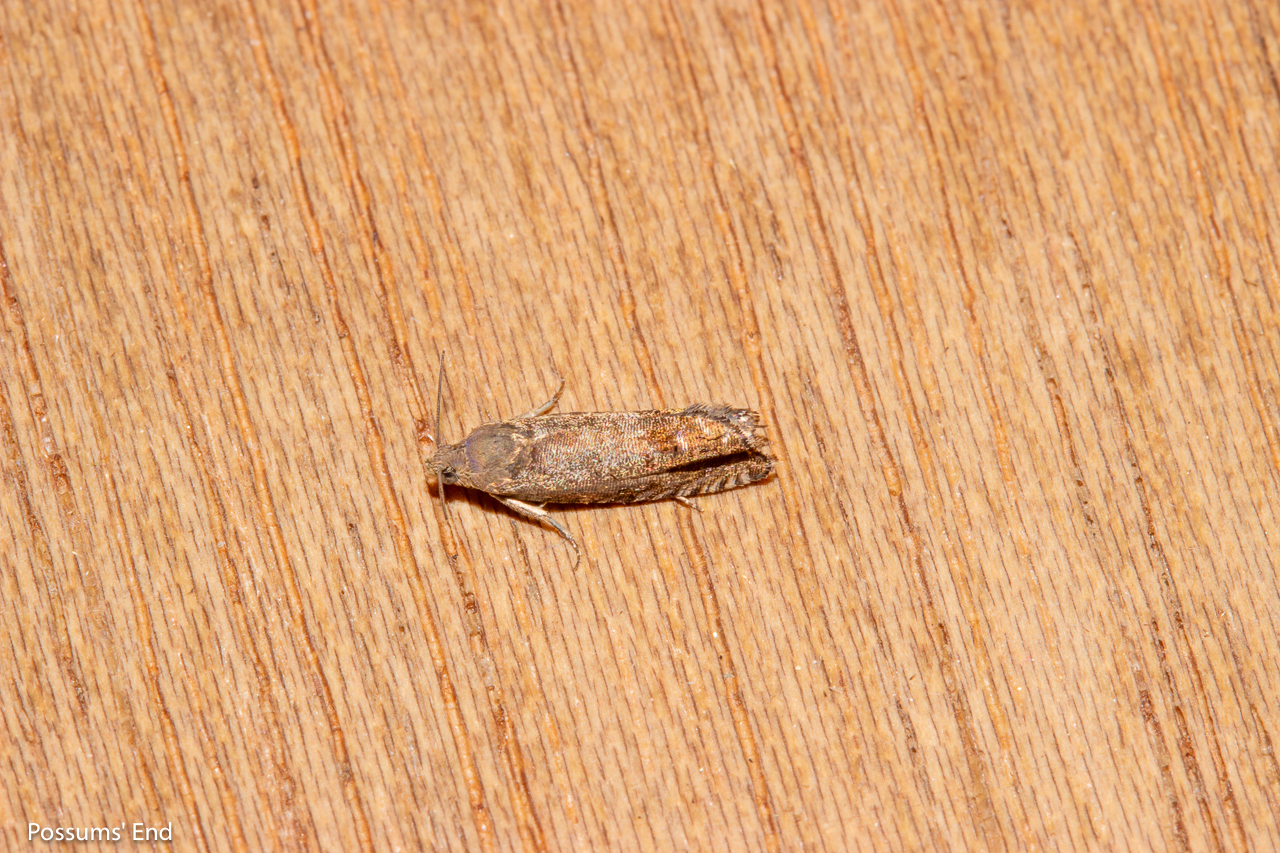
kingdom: Animalia
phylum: Arthropoda
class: Insecta
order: Lepidoptera
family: Tortricidae
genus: Cydia
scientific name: Cydia succedana
